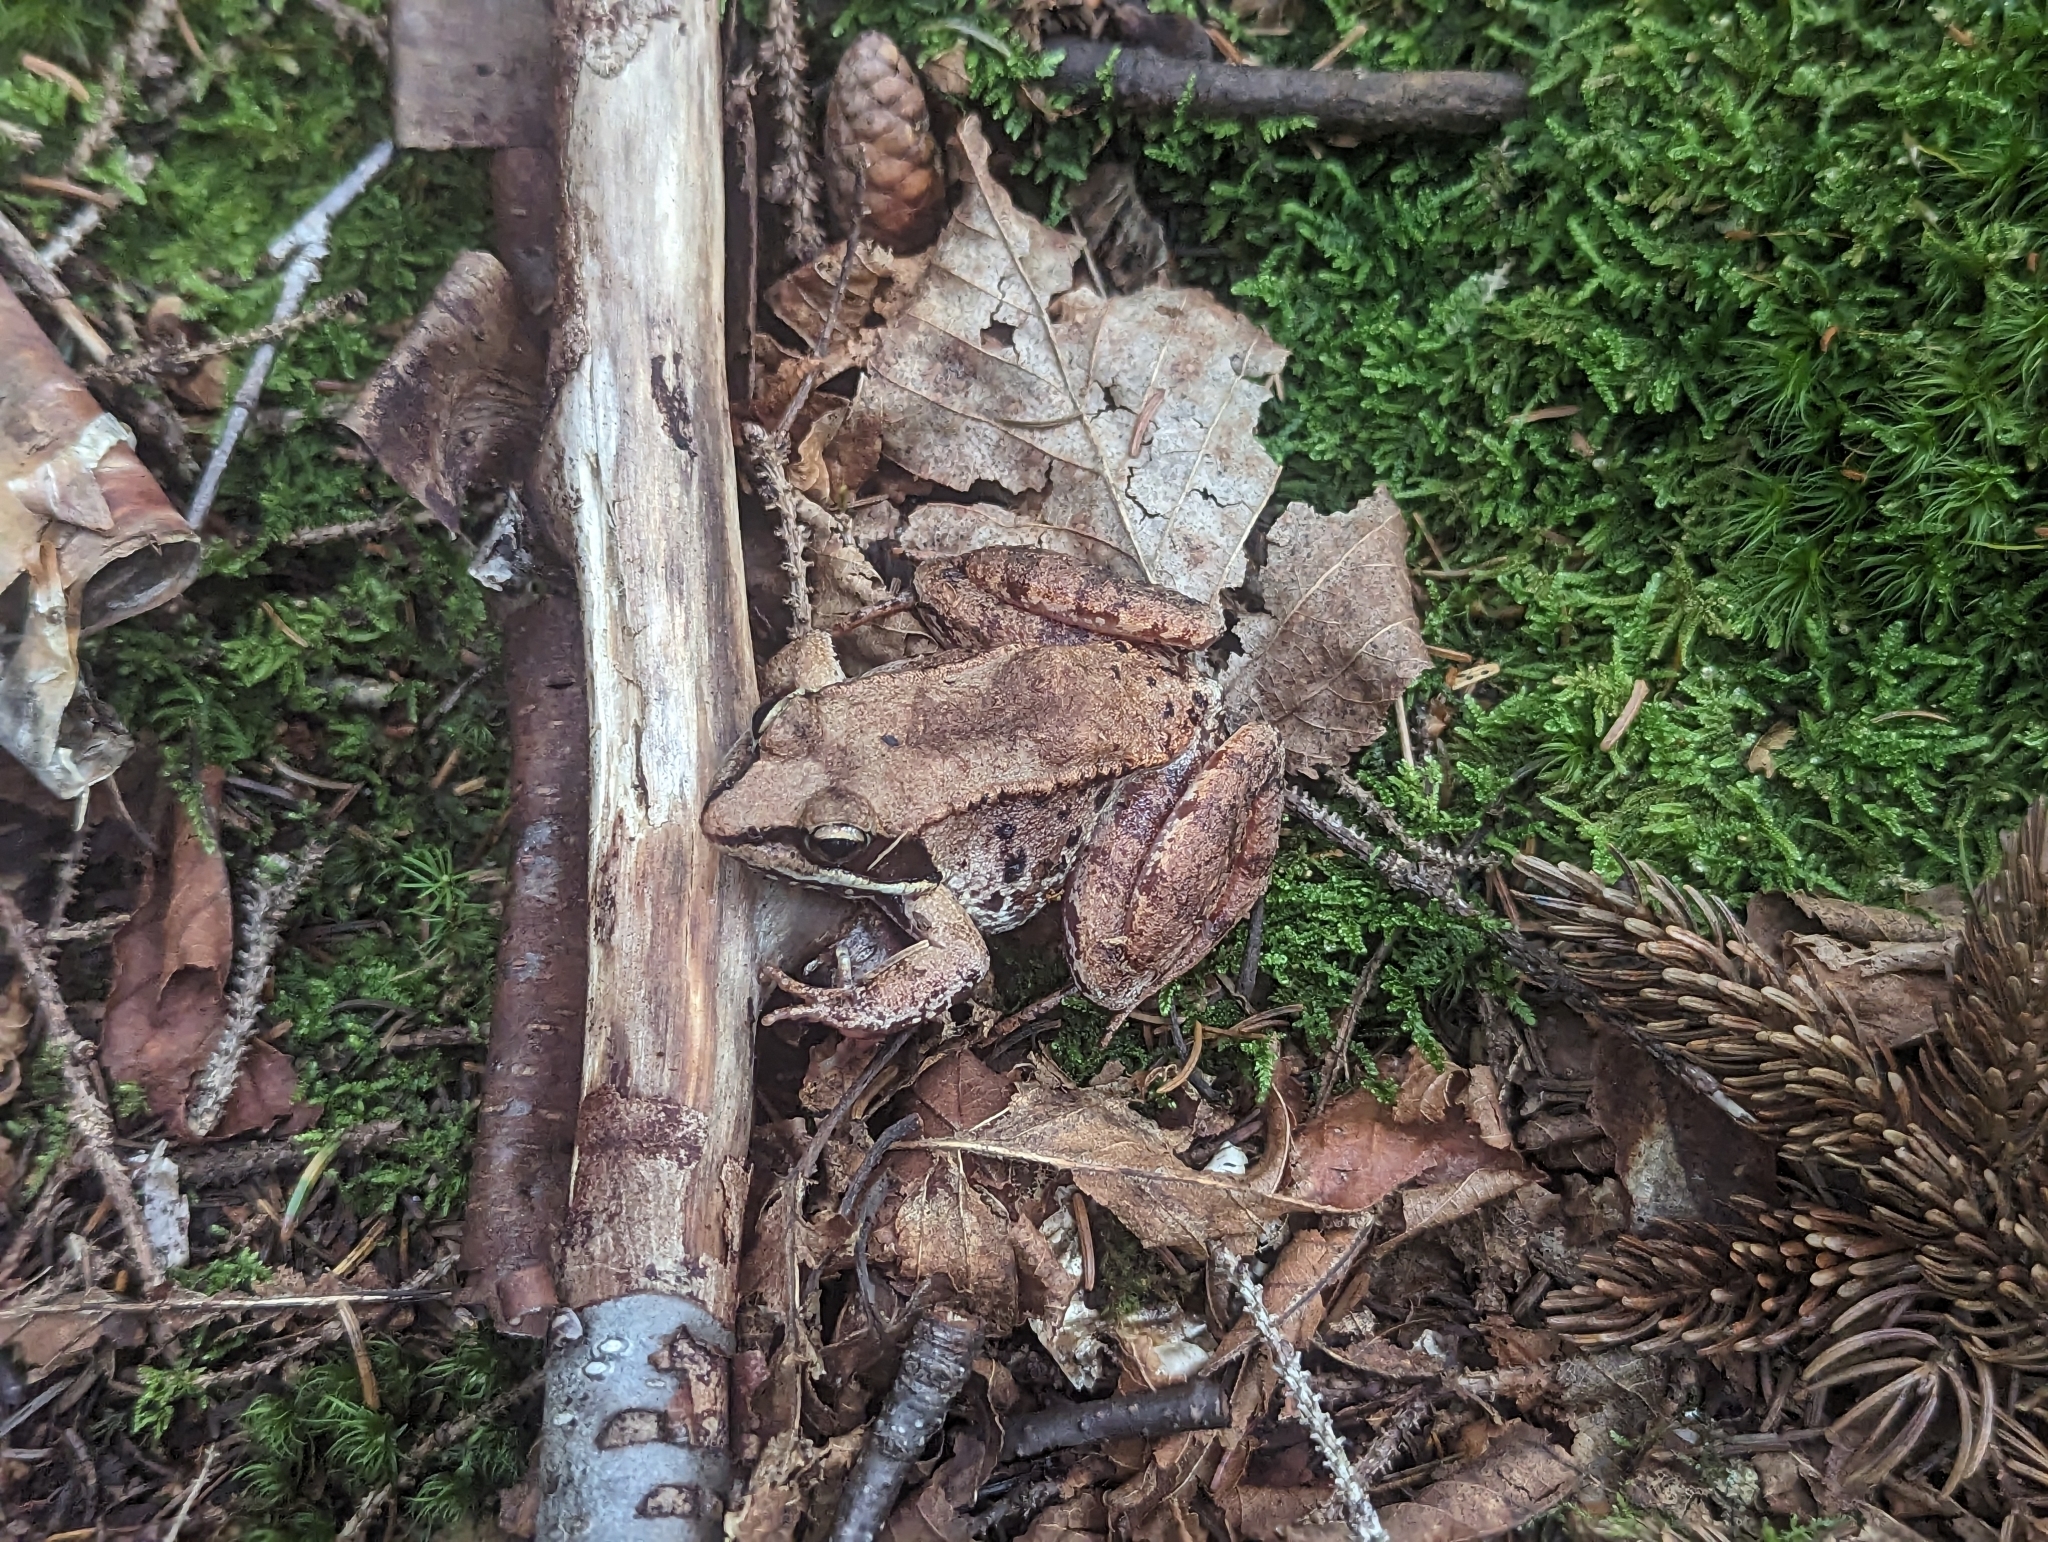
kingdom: Animalia
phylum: Chordata
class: Amphibia
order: Anura
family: Ranidae
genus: Lithobates
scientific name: Lithobates sylvaticus
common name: Wood frog
